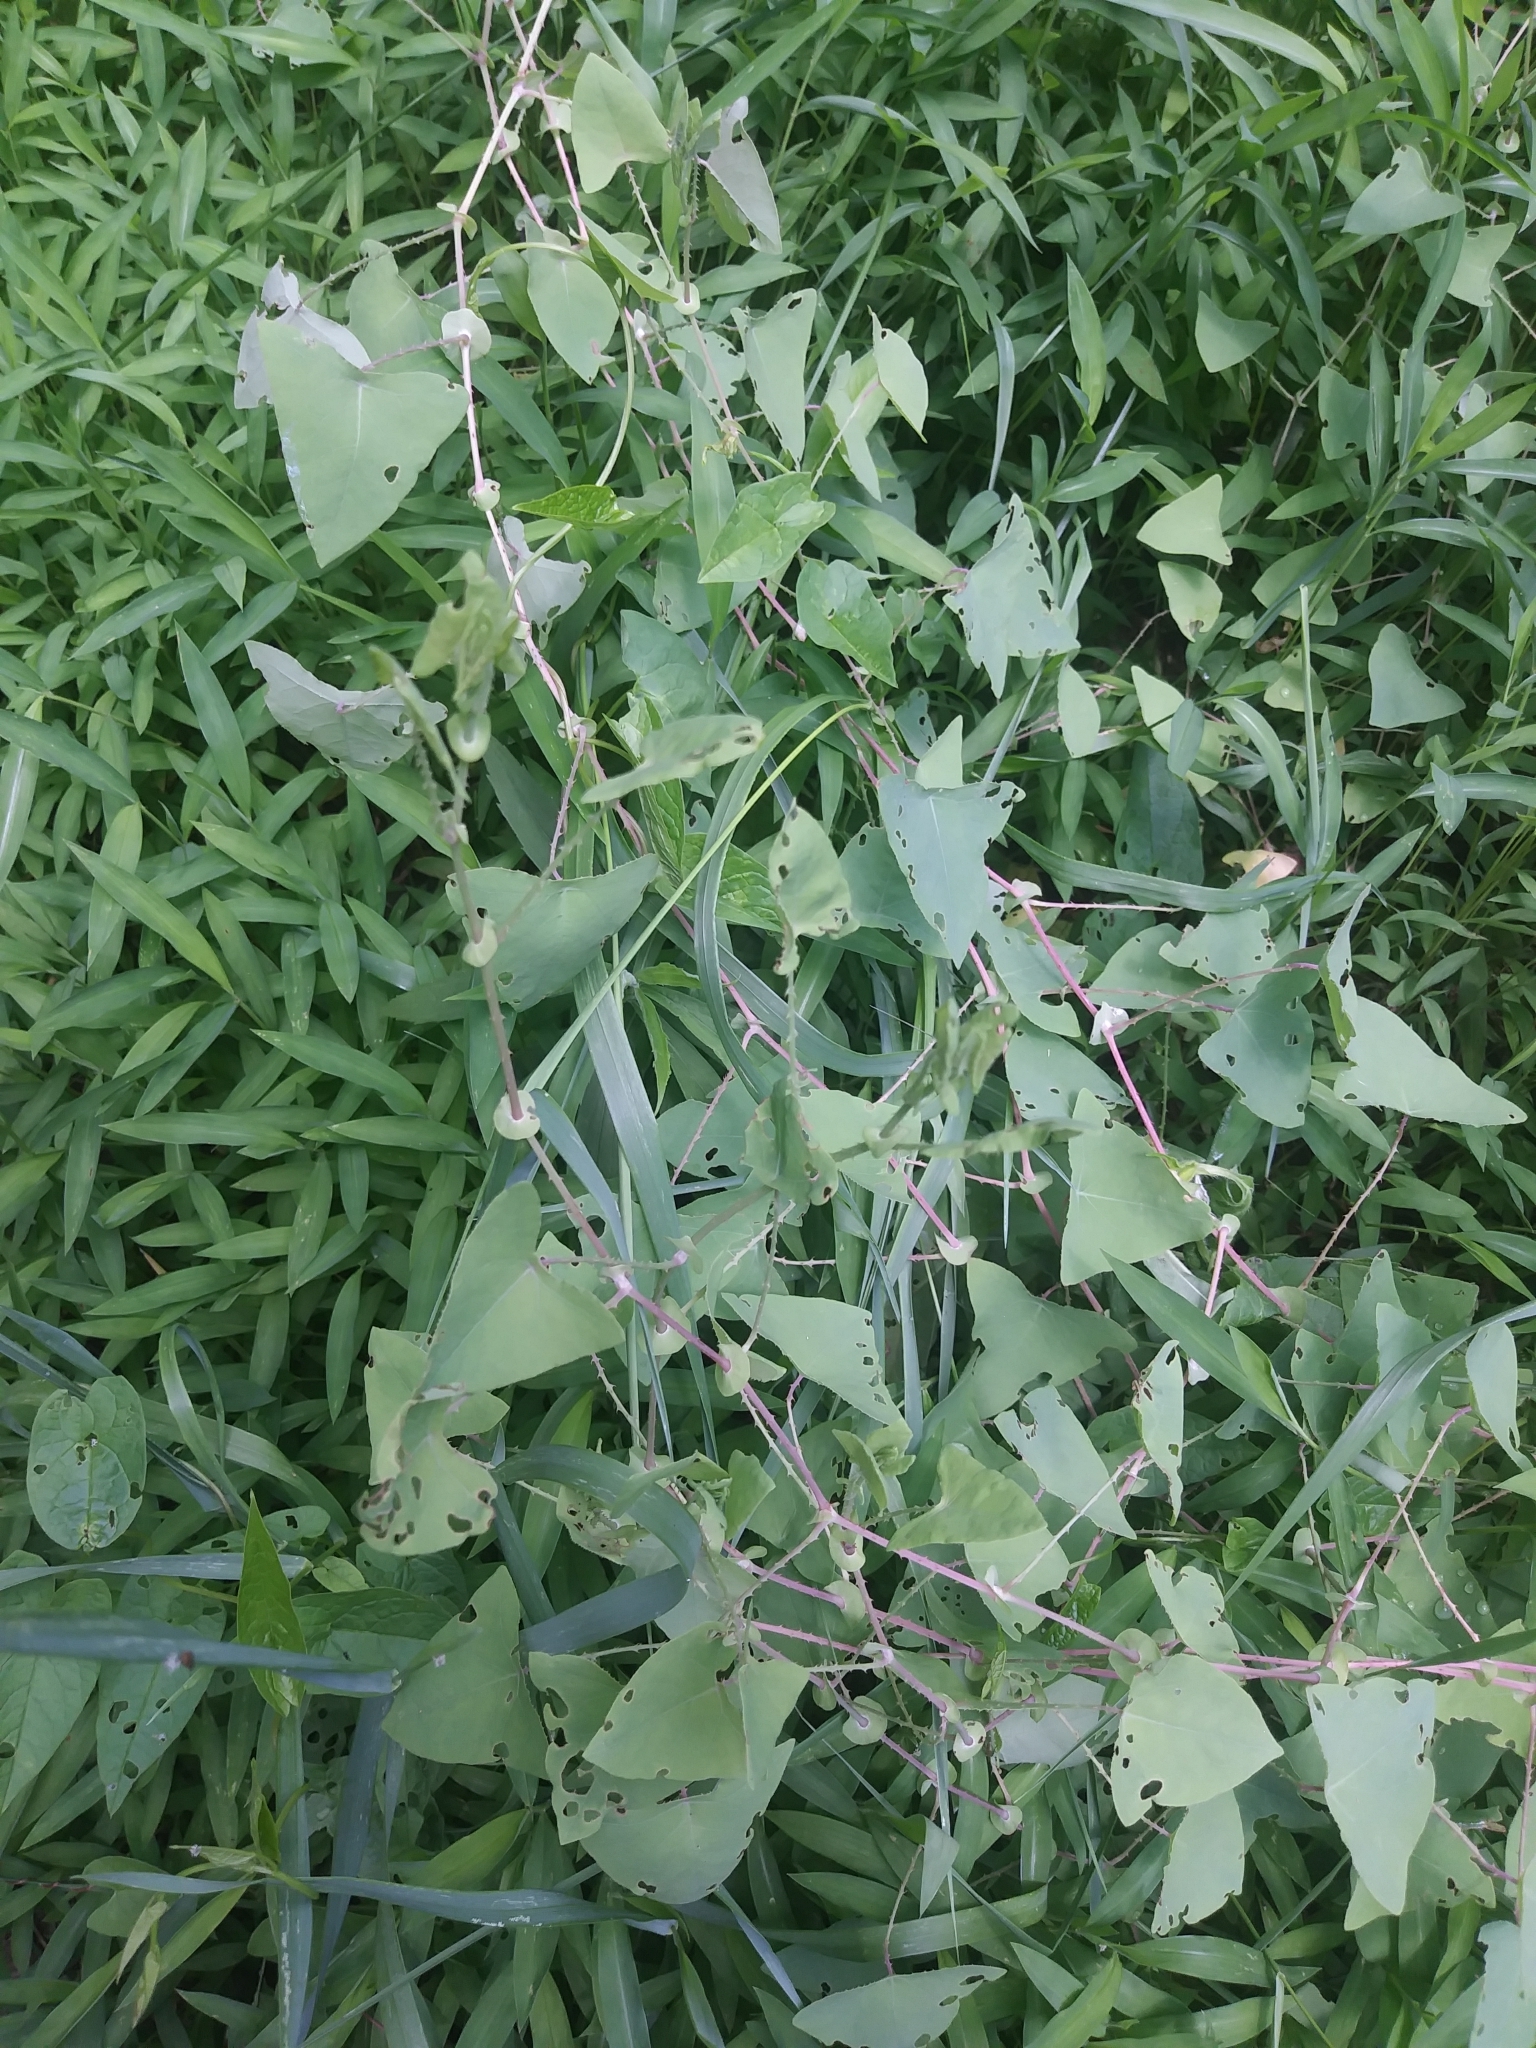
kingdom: Plantae
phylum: Tracheophyta
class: Magnoliopsida
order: Caryophyllales
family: Polygonaceae
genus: Persicaria
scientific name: Persicaria perfoliata
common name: Asiatic tearthumb
